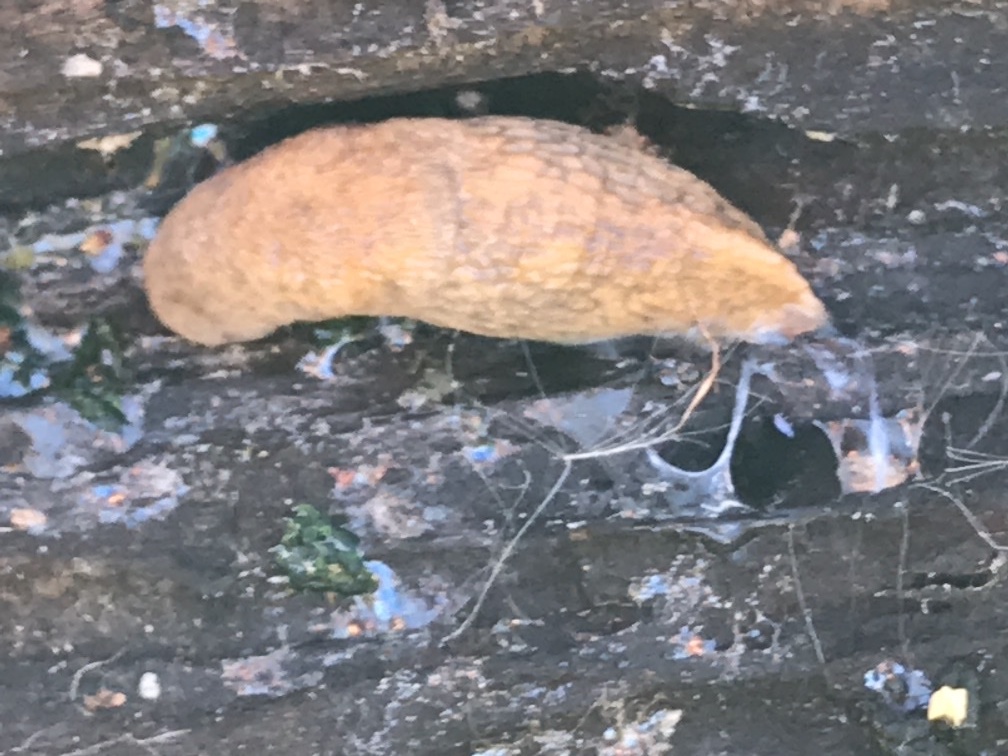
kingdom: Animalia
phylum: Mollusca
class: Gastropoda
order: Stylommatophora
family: Agriolimacidae
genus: Deroceras
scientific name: Deroceras reticulatum
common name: Gray field slug
